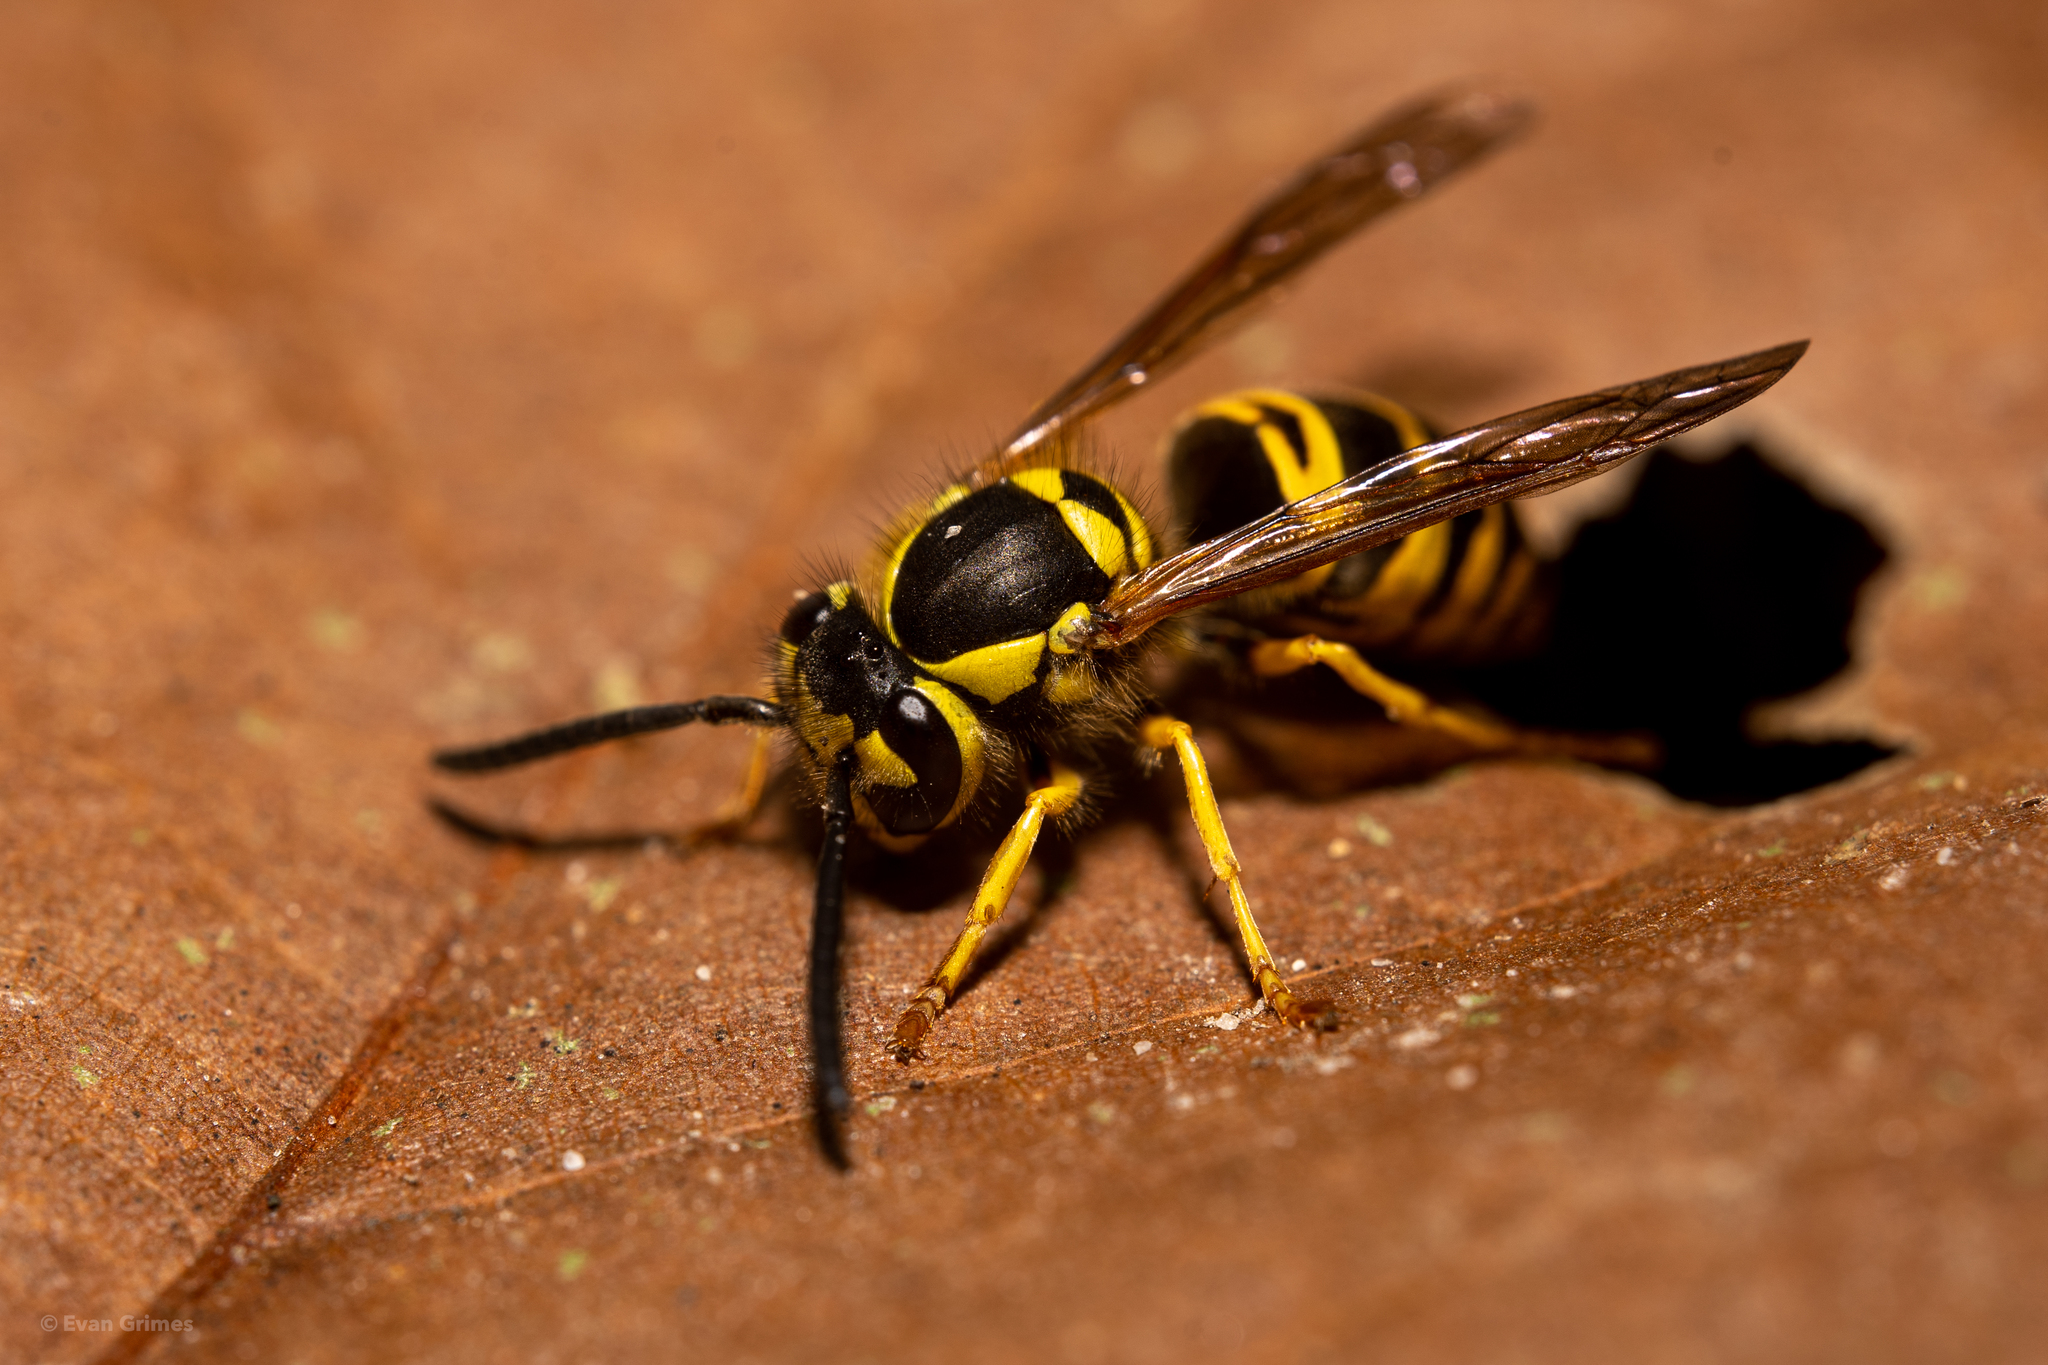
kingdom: Animalia
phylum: Arthropoda
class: Insecta
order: Hymenoptera
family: Vespidae
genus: Vespula
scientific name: Vespula maculifrons
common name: Eastern yellowjacket
